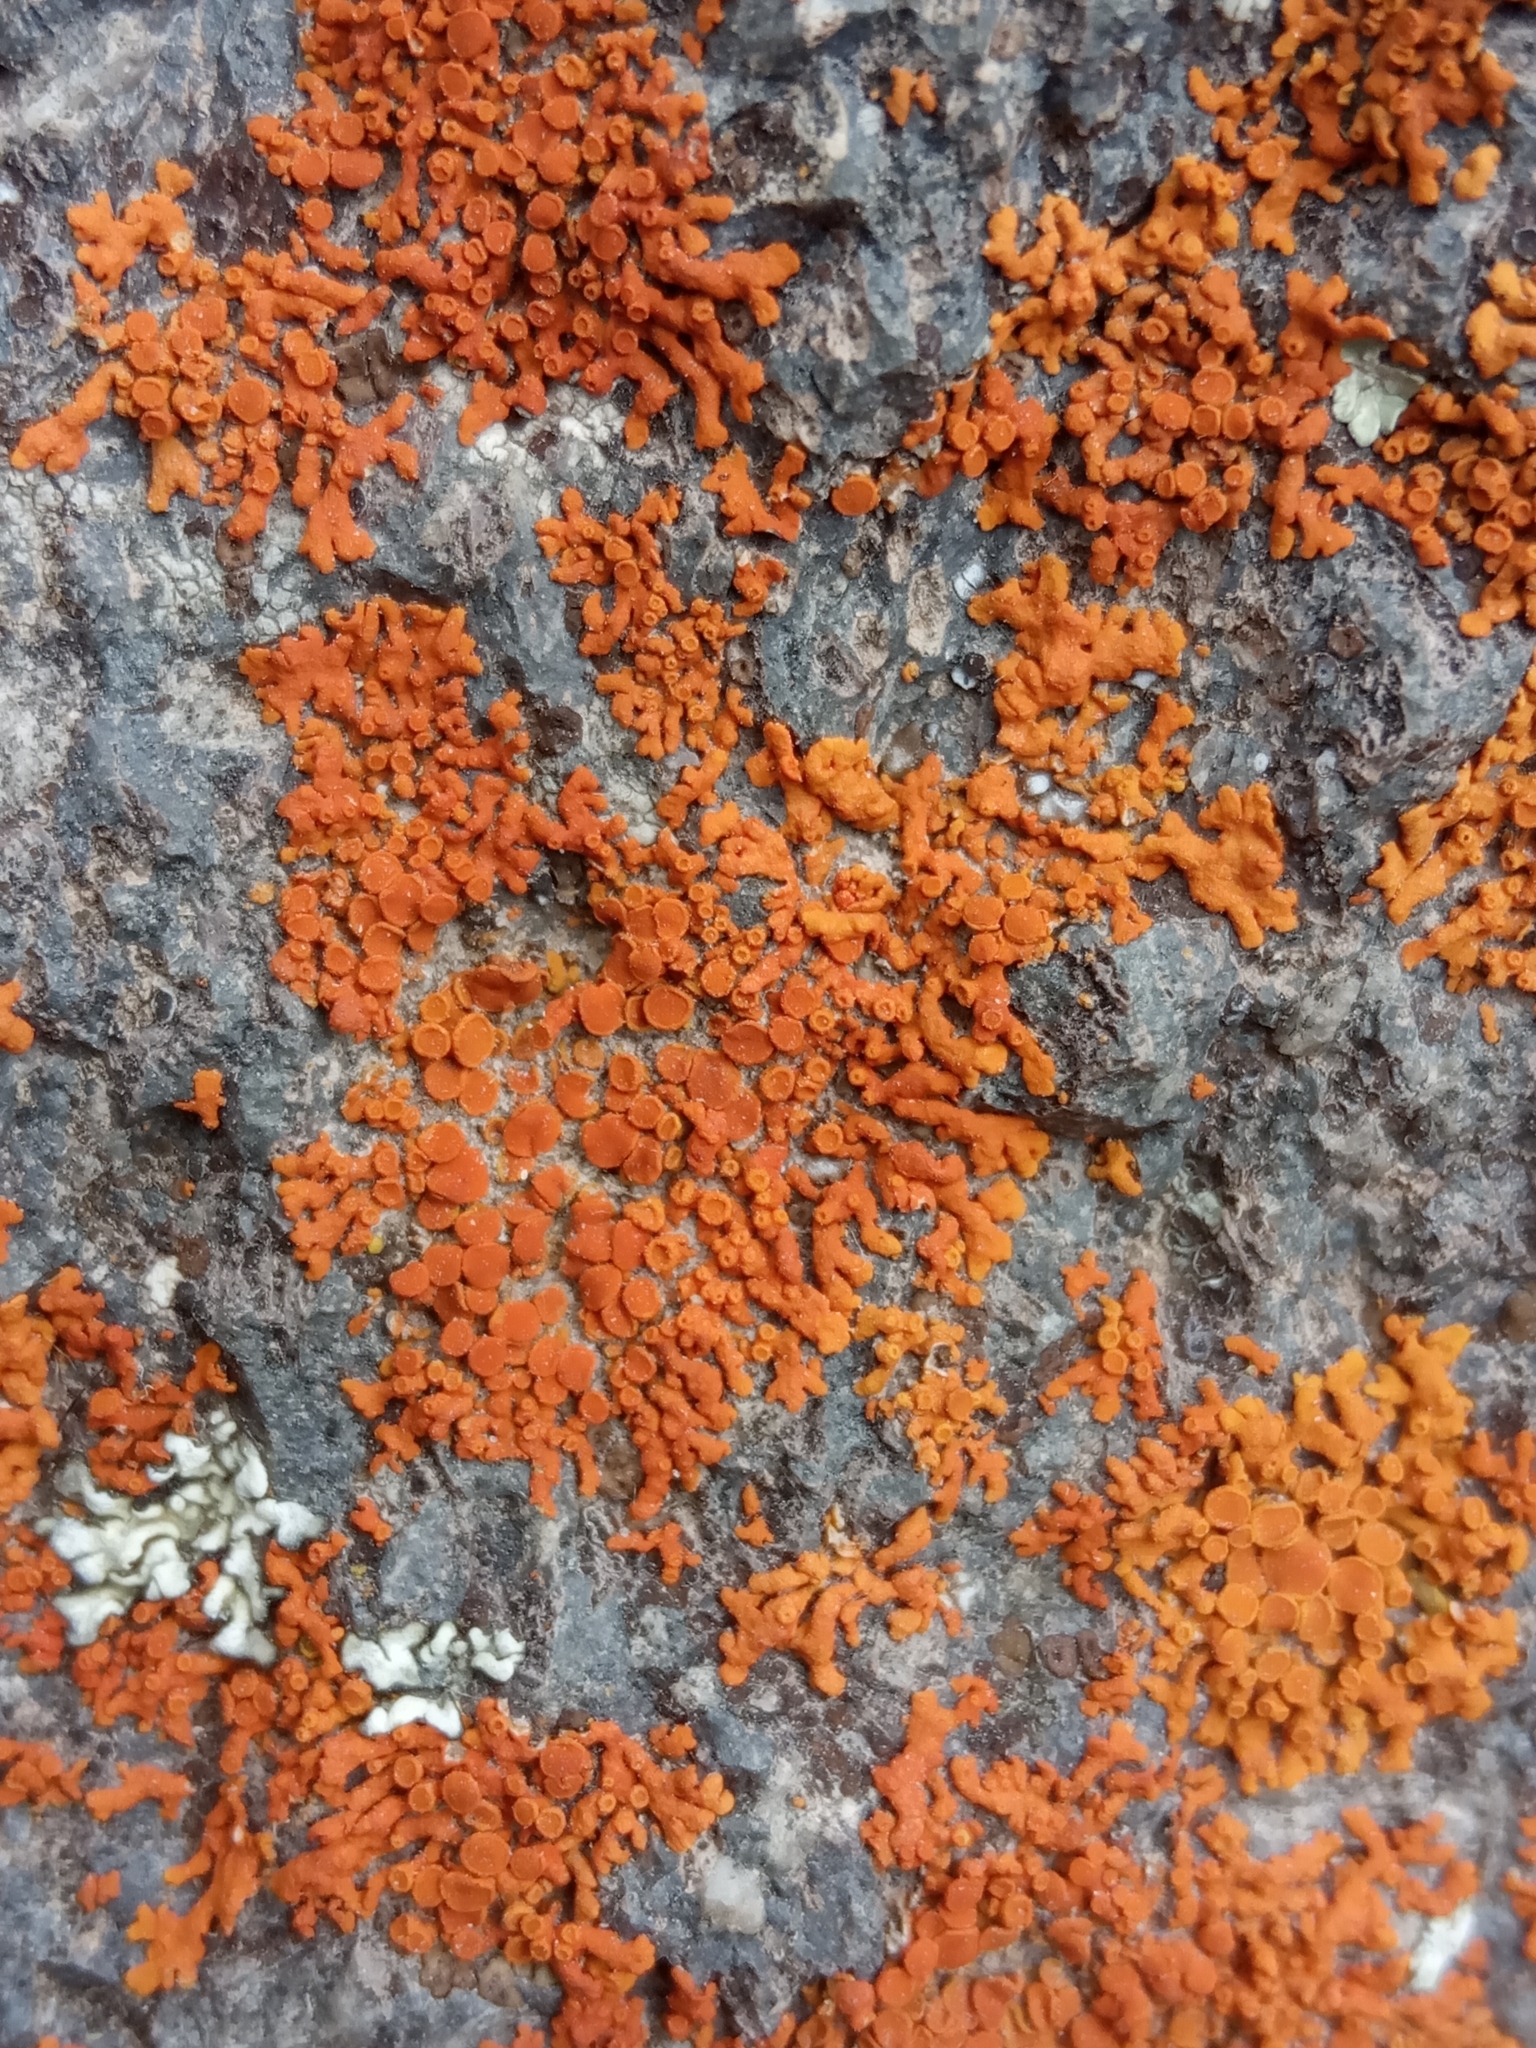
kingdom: Fungi
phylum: Ascomycota
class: Lecanoromycetes
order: Teloschistales
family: Teloschistaceae
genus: Xanthoria
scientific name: Xanthoria elegans
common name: Elegant sunburst lichen
